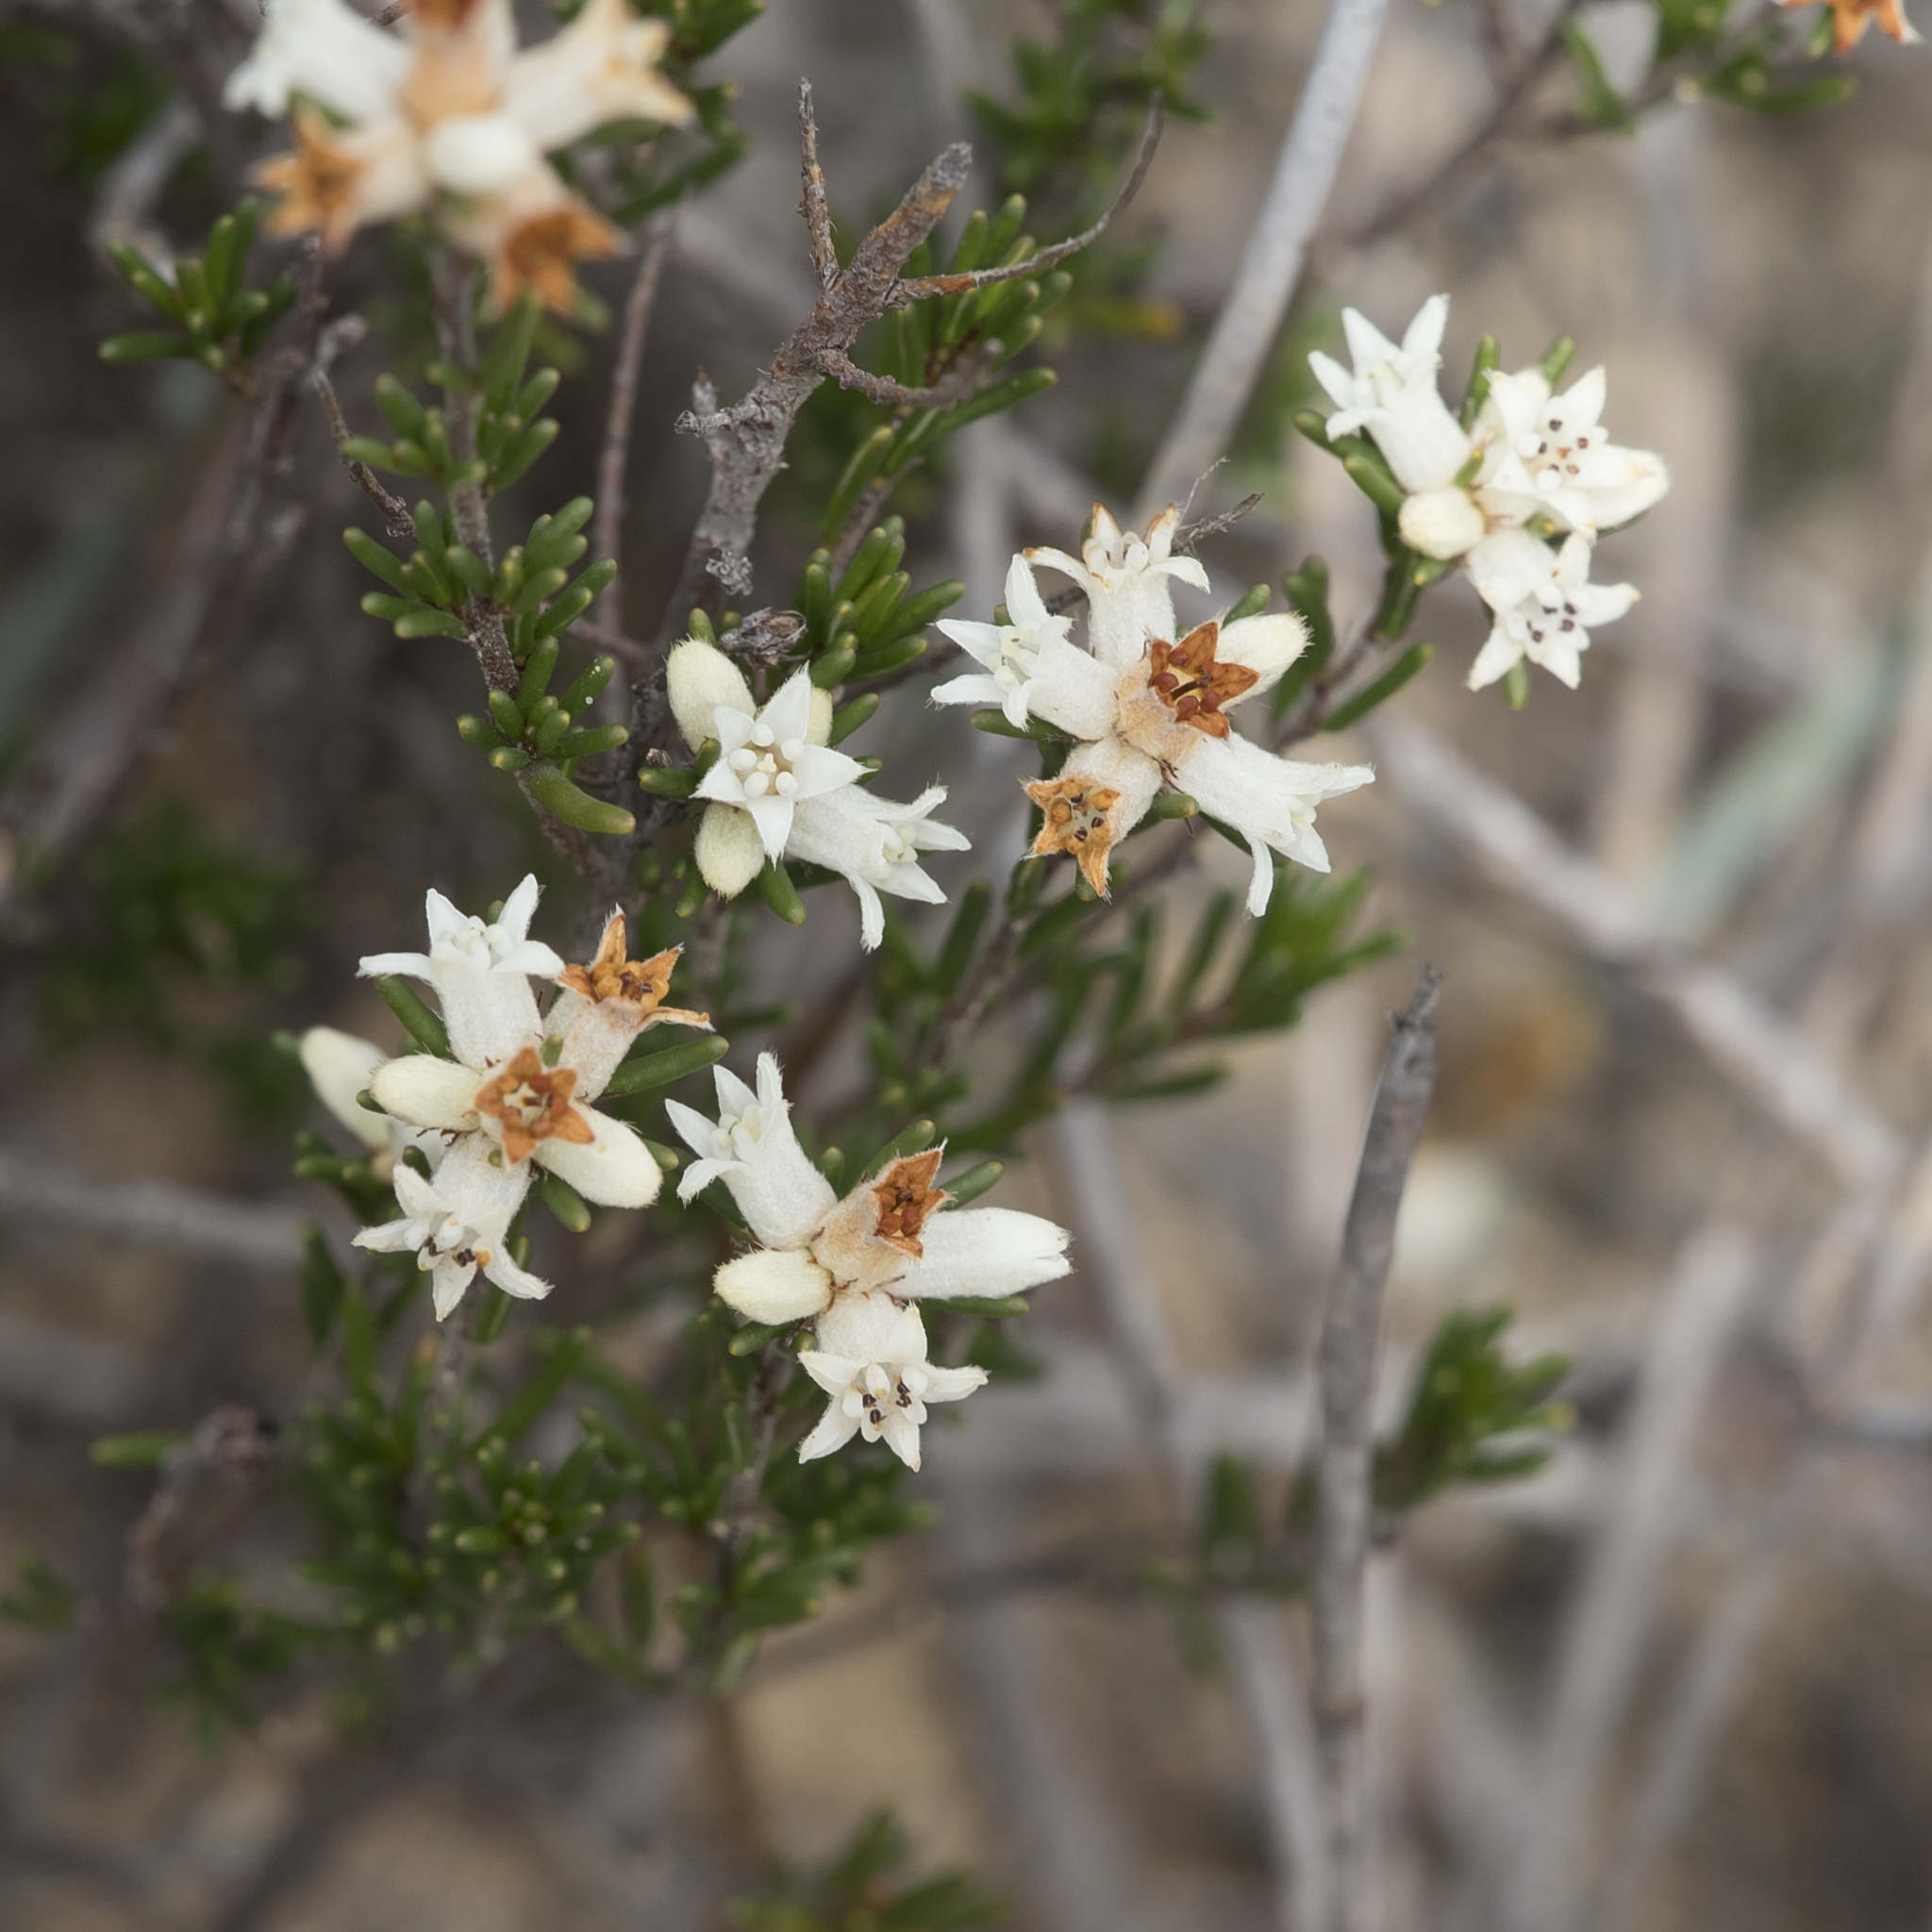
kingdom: Plantae
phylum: Tracheophyta
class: Magnoliopsida
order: Rosales
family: Rhamnaceae
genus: Cryptandra
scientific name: Cryptandra hispidula
